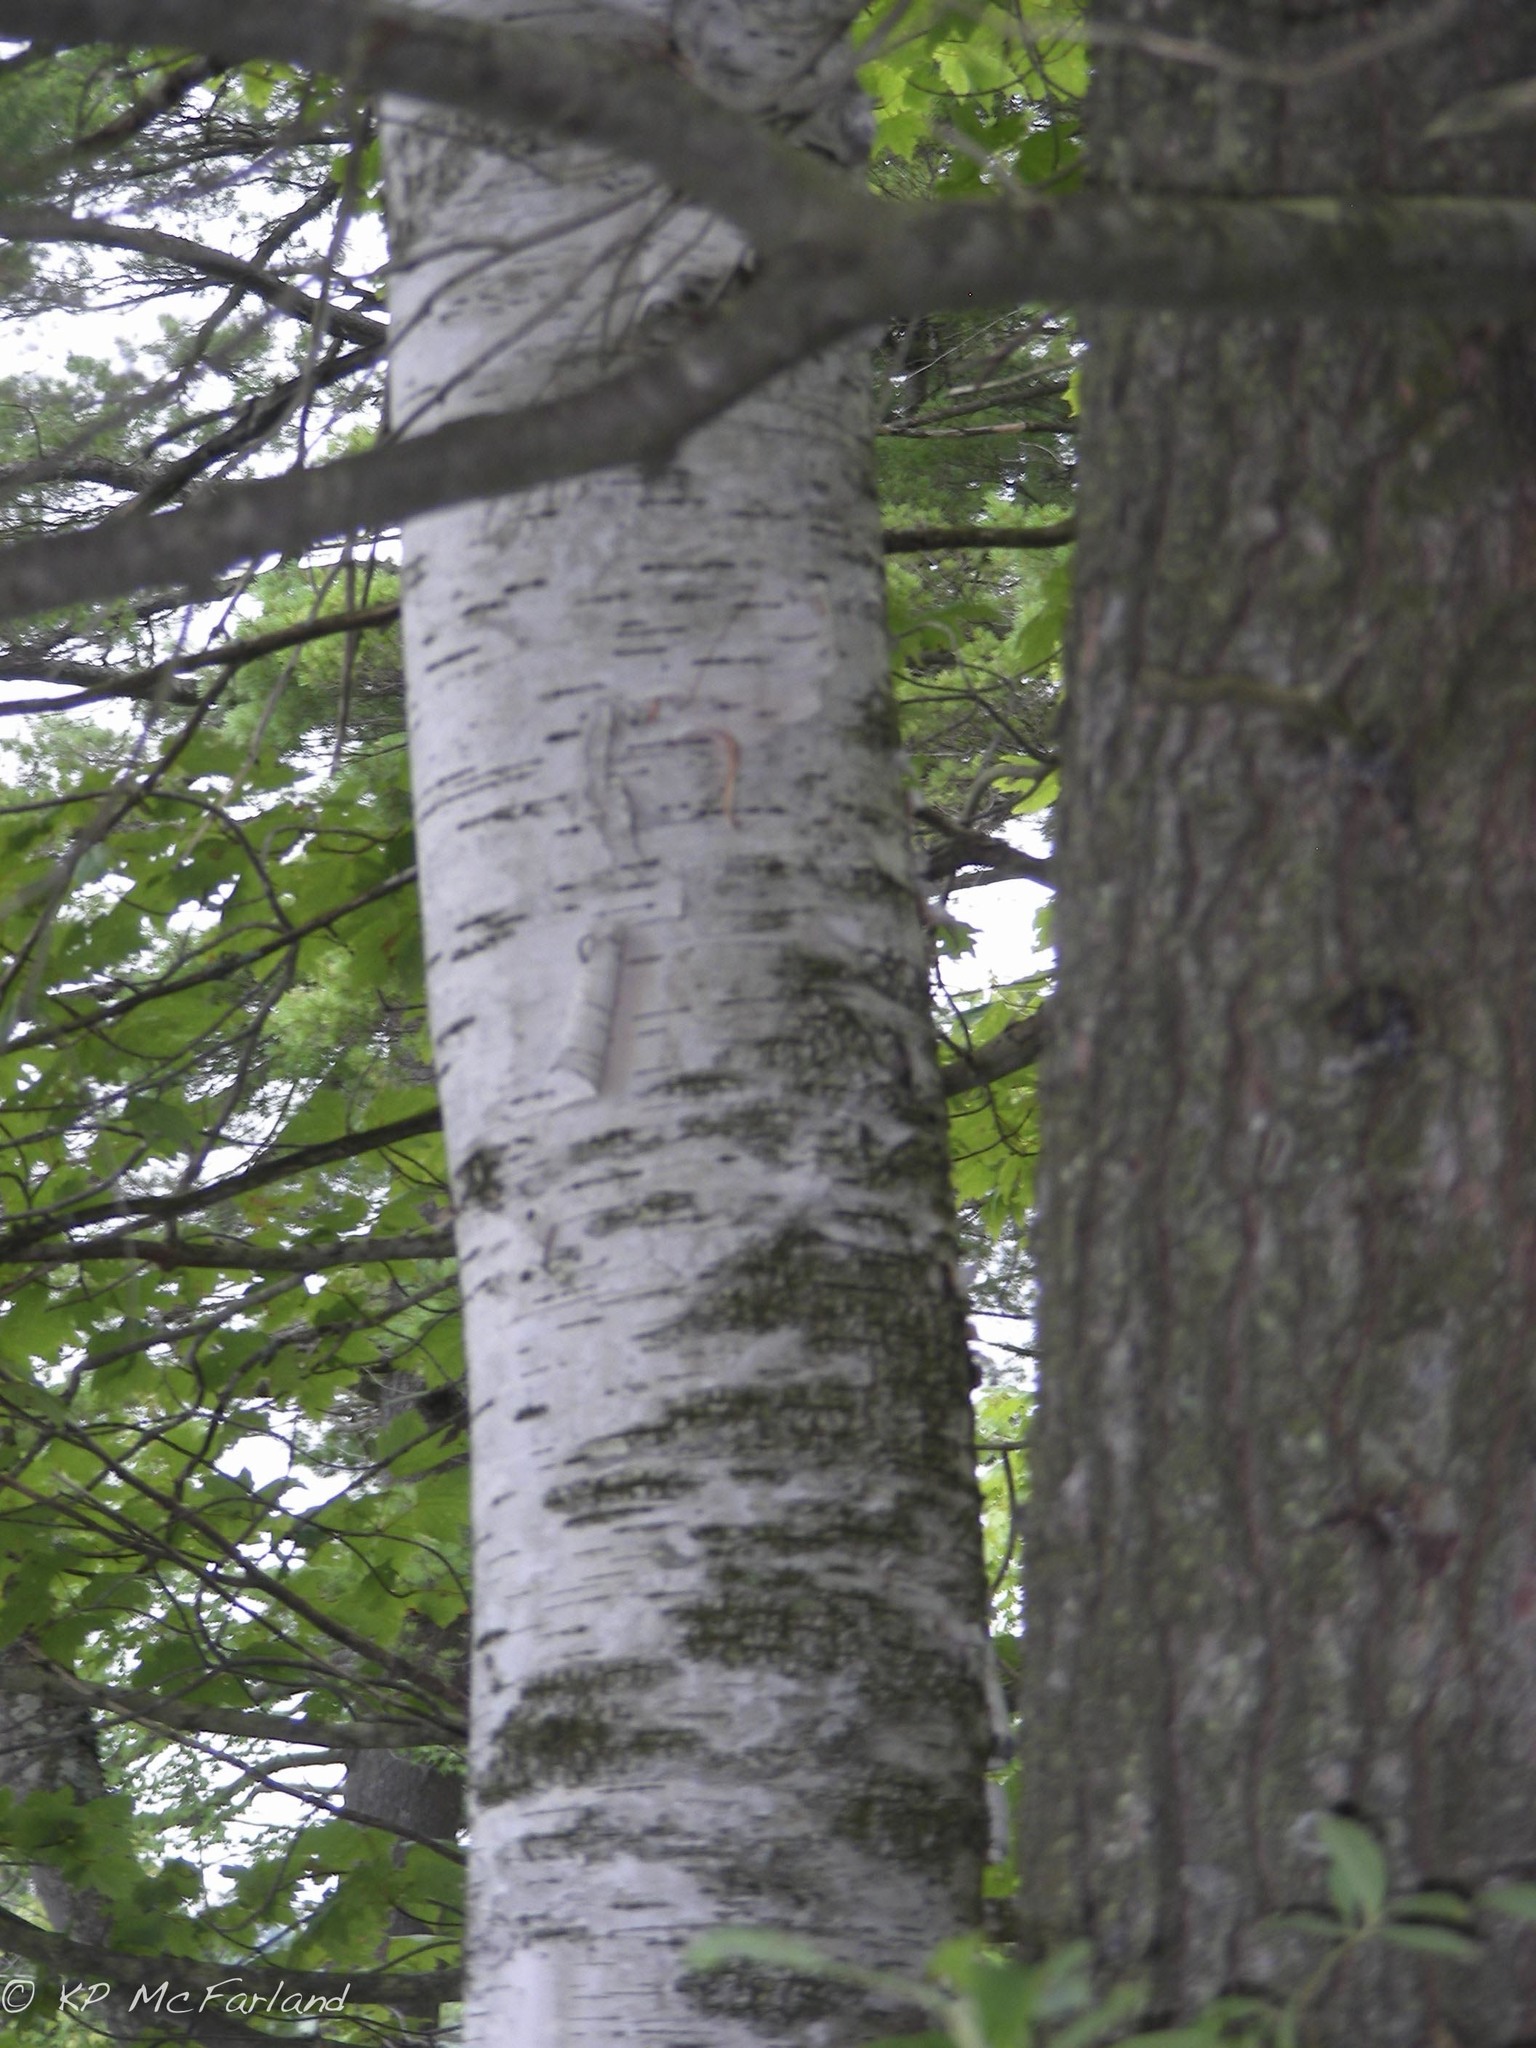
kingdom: Plantae
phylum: Tracheophyta
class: Magnoliopsida
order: Fagales
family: Betulaceae
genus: Betula
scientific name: Betula papyrifera
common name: Paper birch
